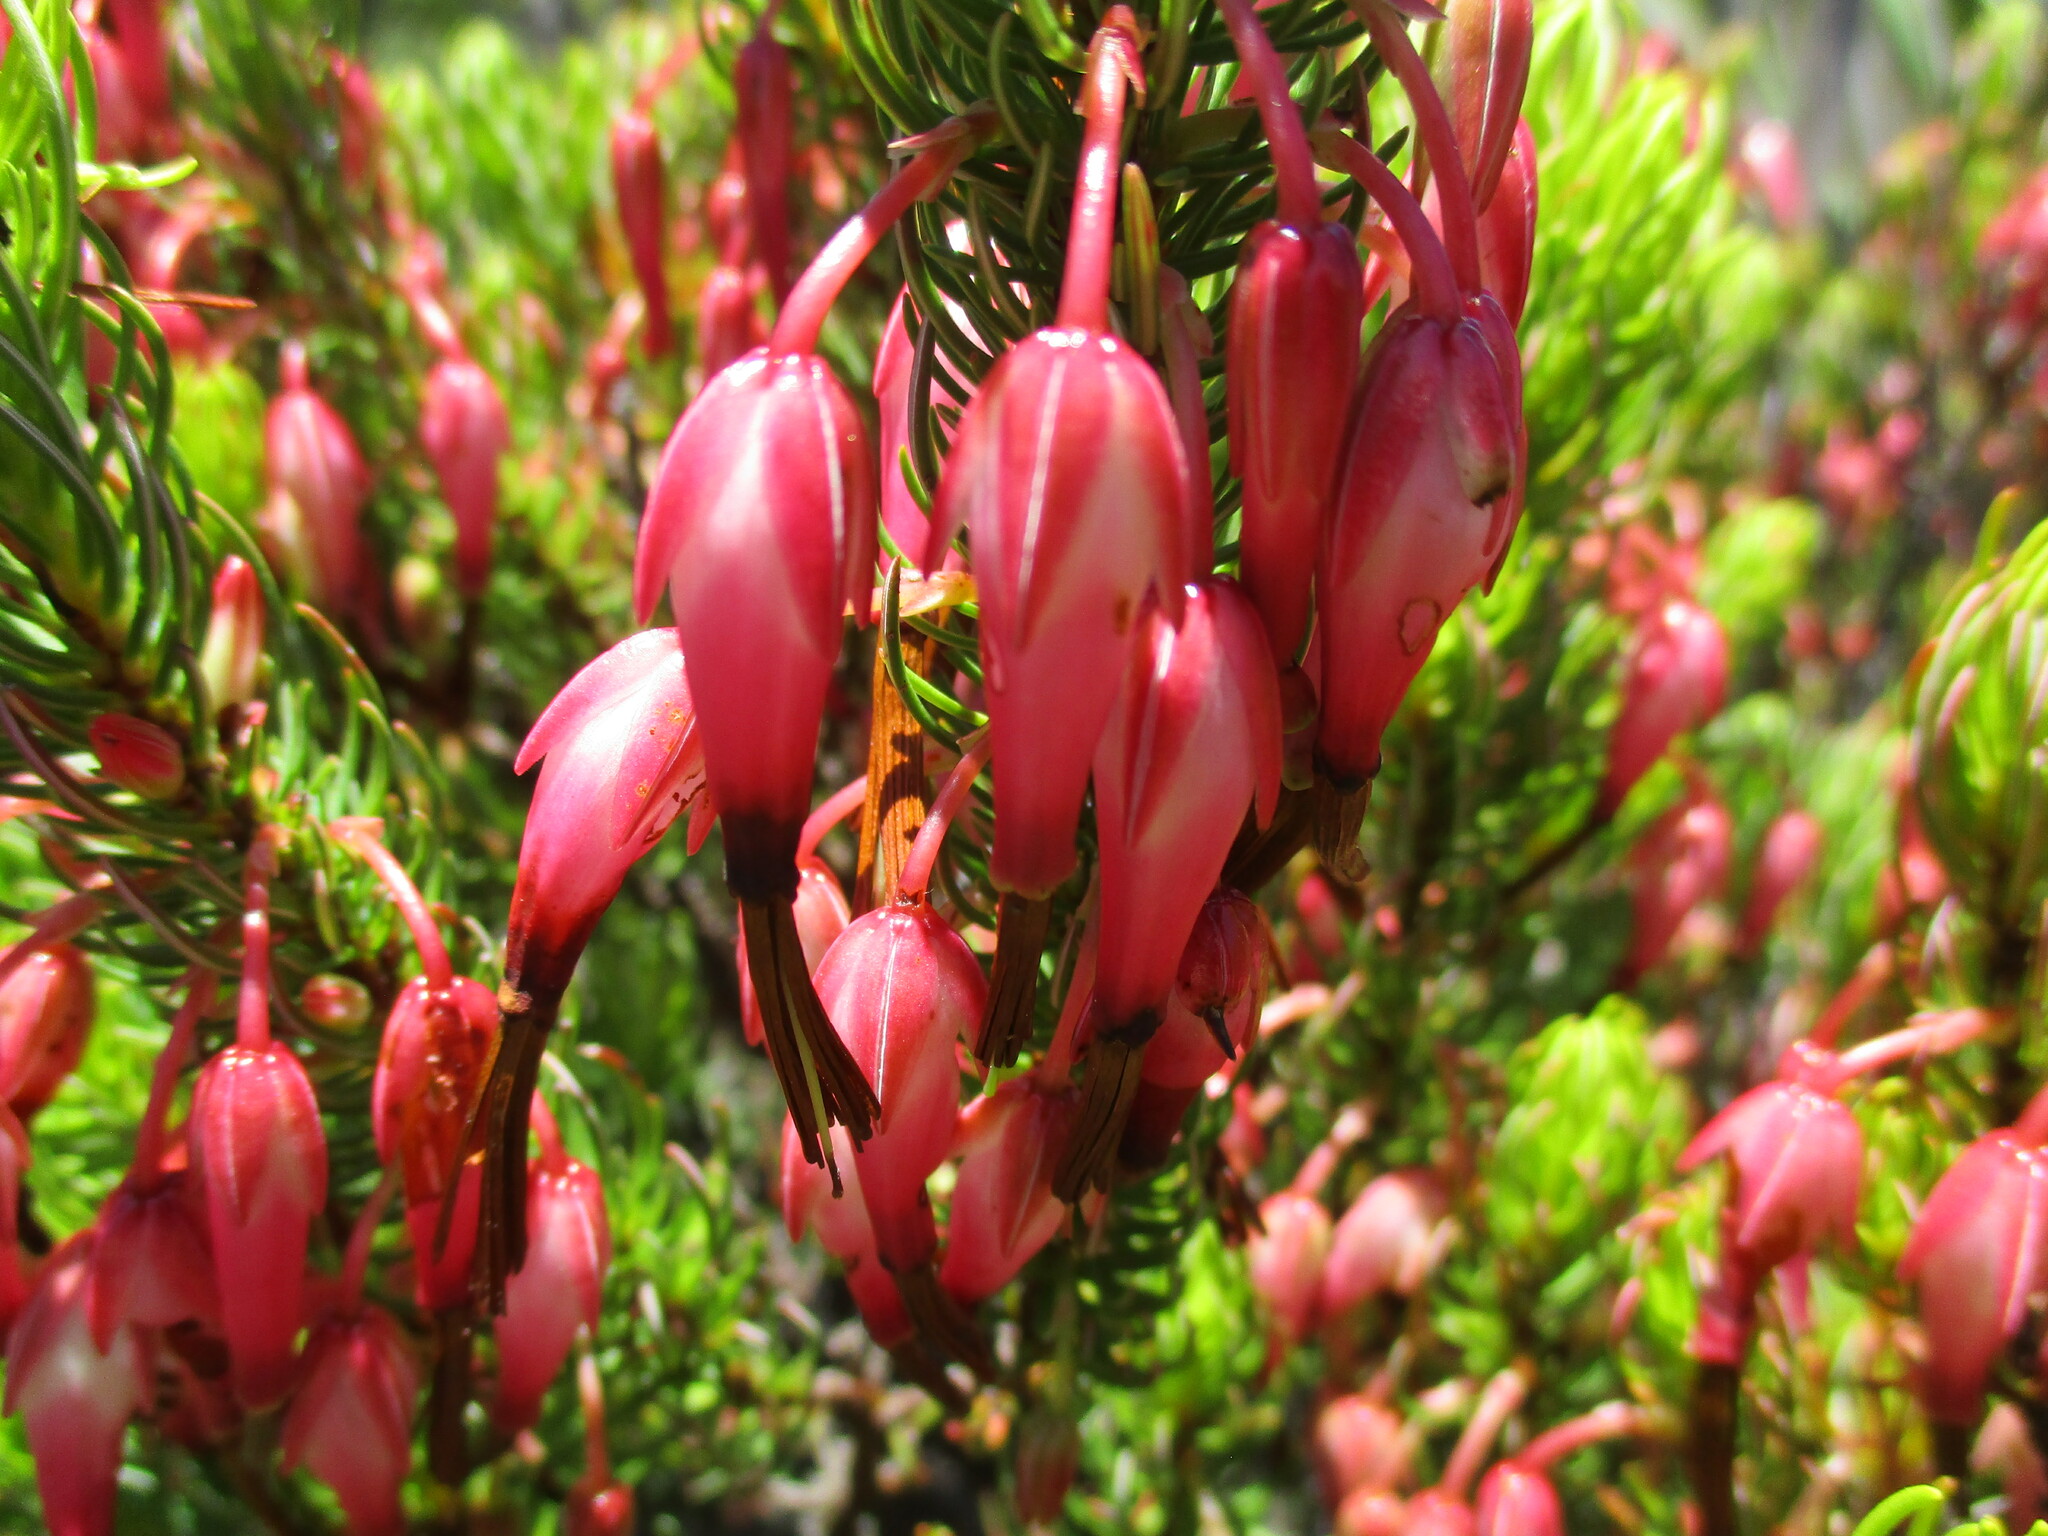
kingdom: Plantae
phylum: Tracheophyta
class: Magnoliopsida
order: Ericales
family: Ericaceae
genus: Erica
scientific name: Erica plukenetii
